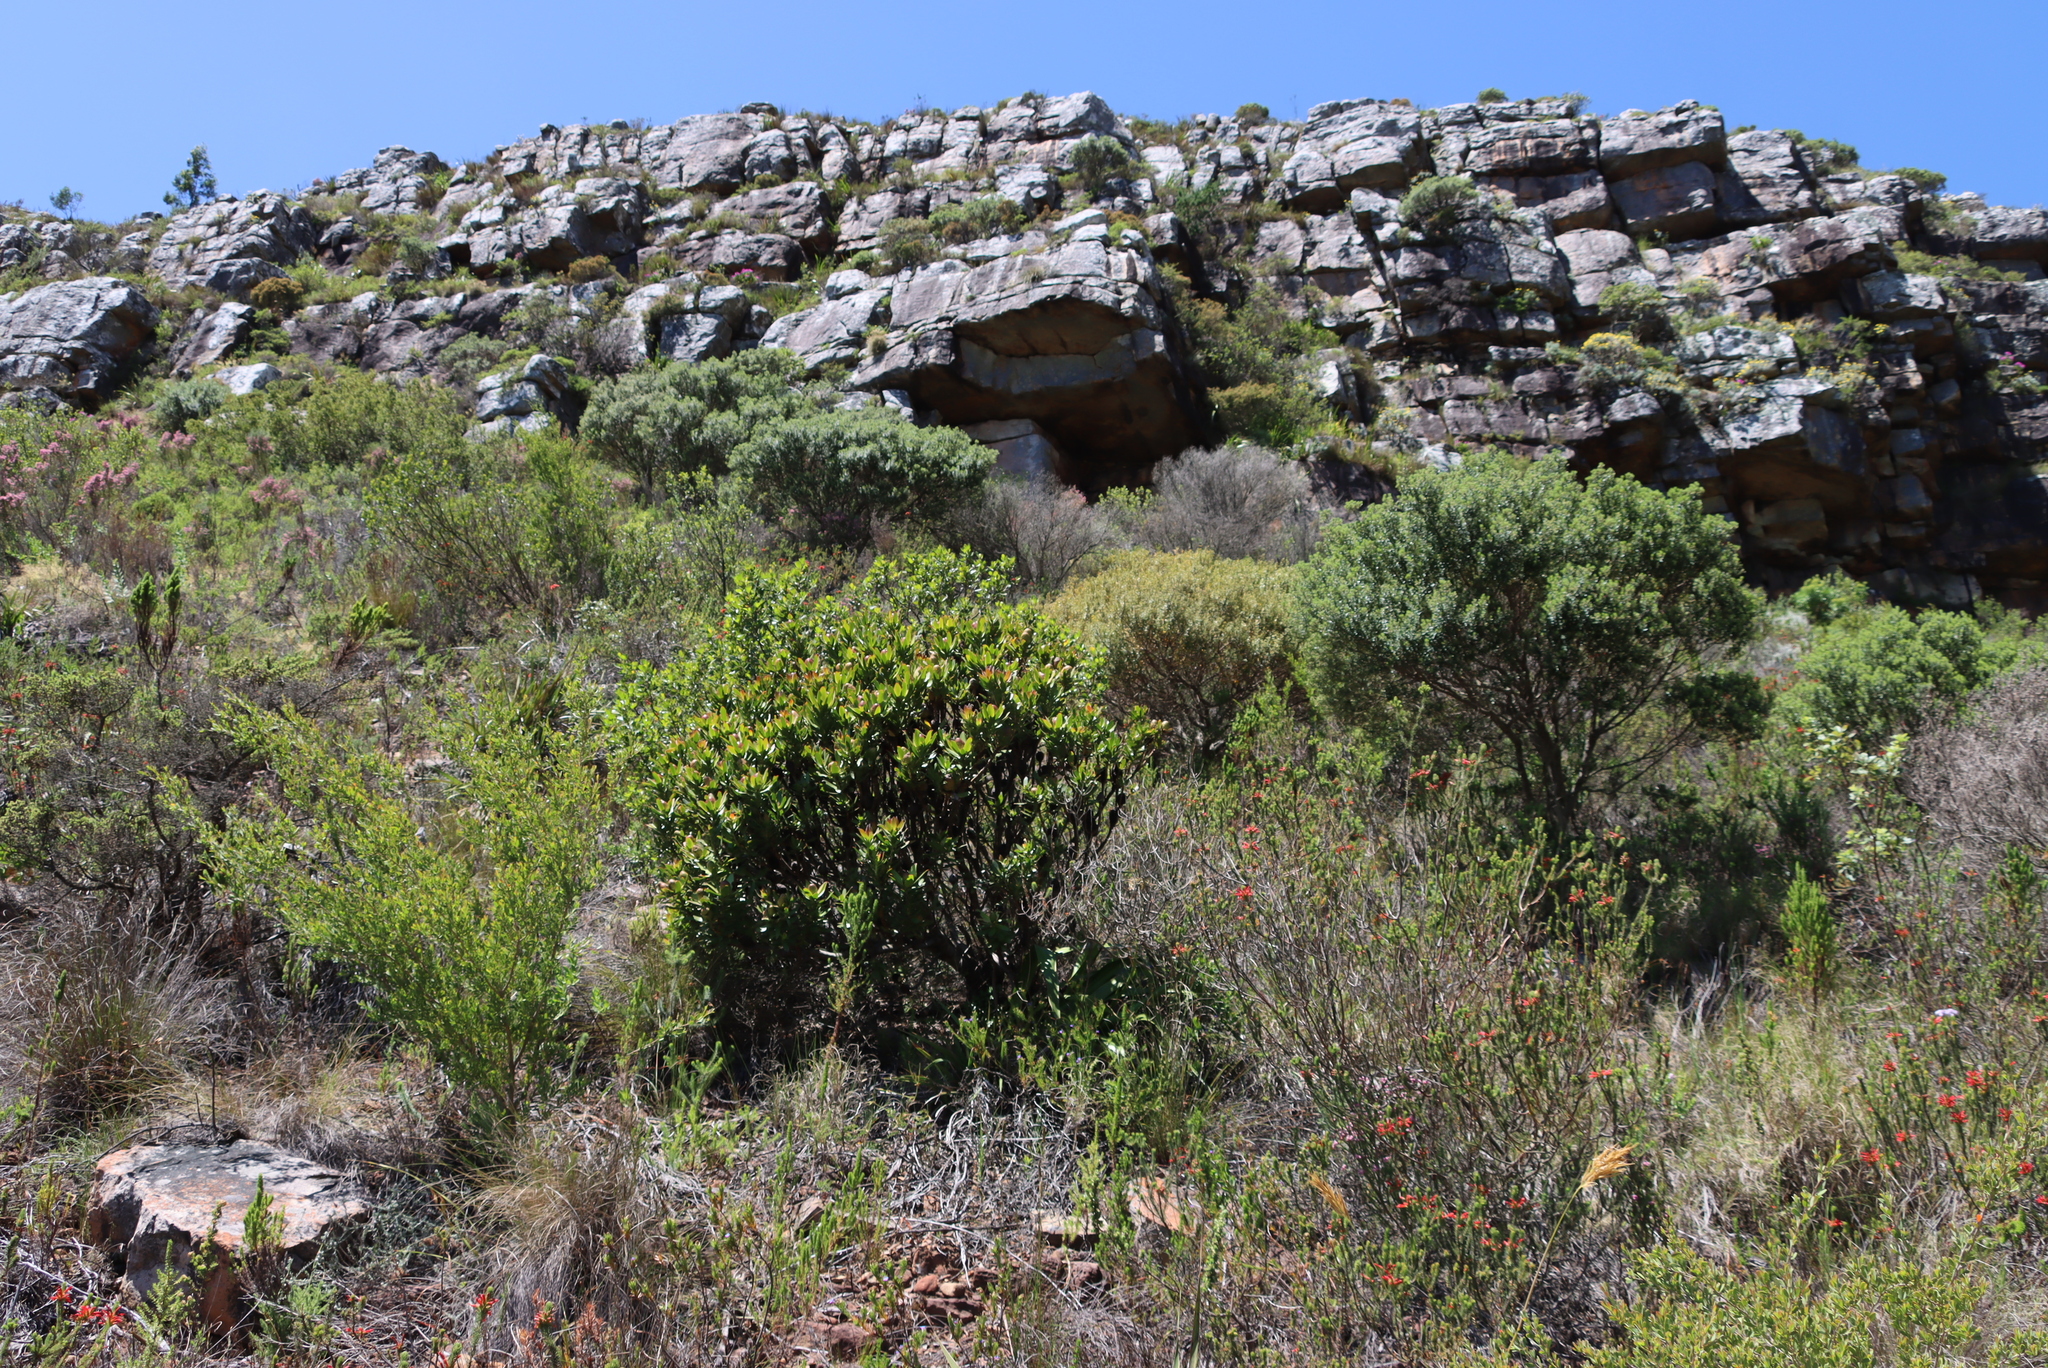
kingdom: Plantae
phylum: Tracheophyta
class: Magnoliopsida
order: Proteales
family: Proteaceae
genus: Leucadendron
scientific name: Leucadendron strobilinum
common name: Mountain rose
